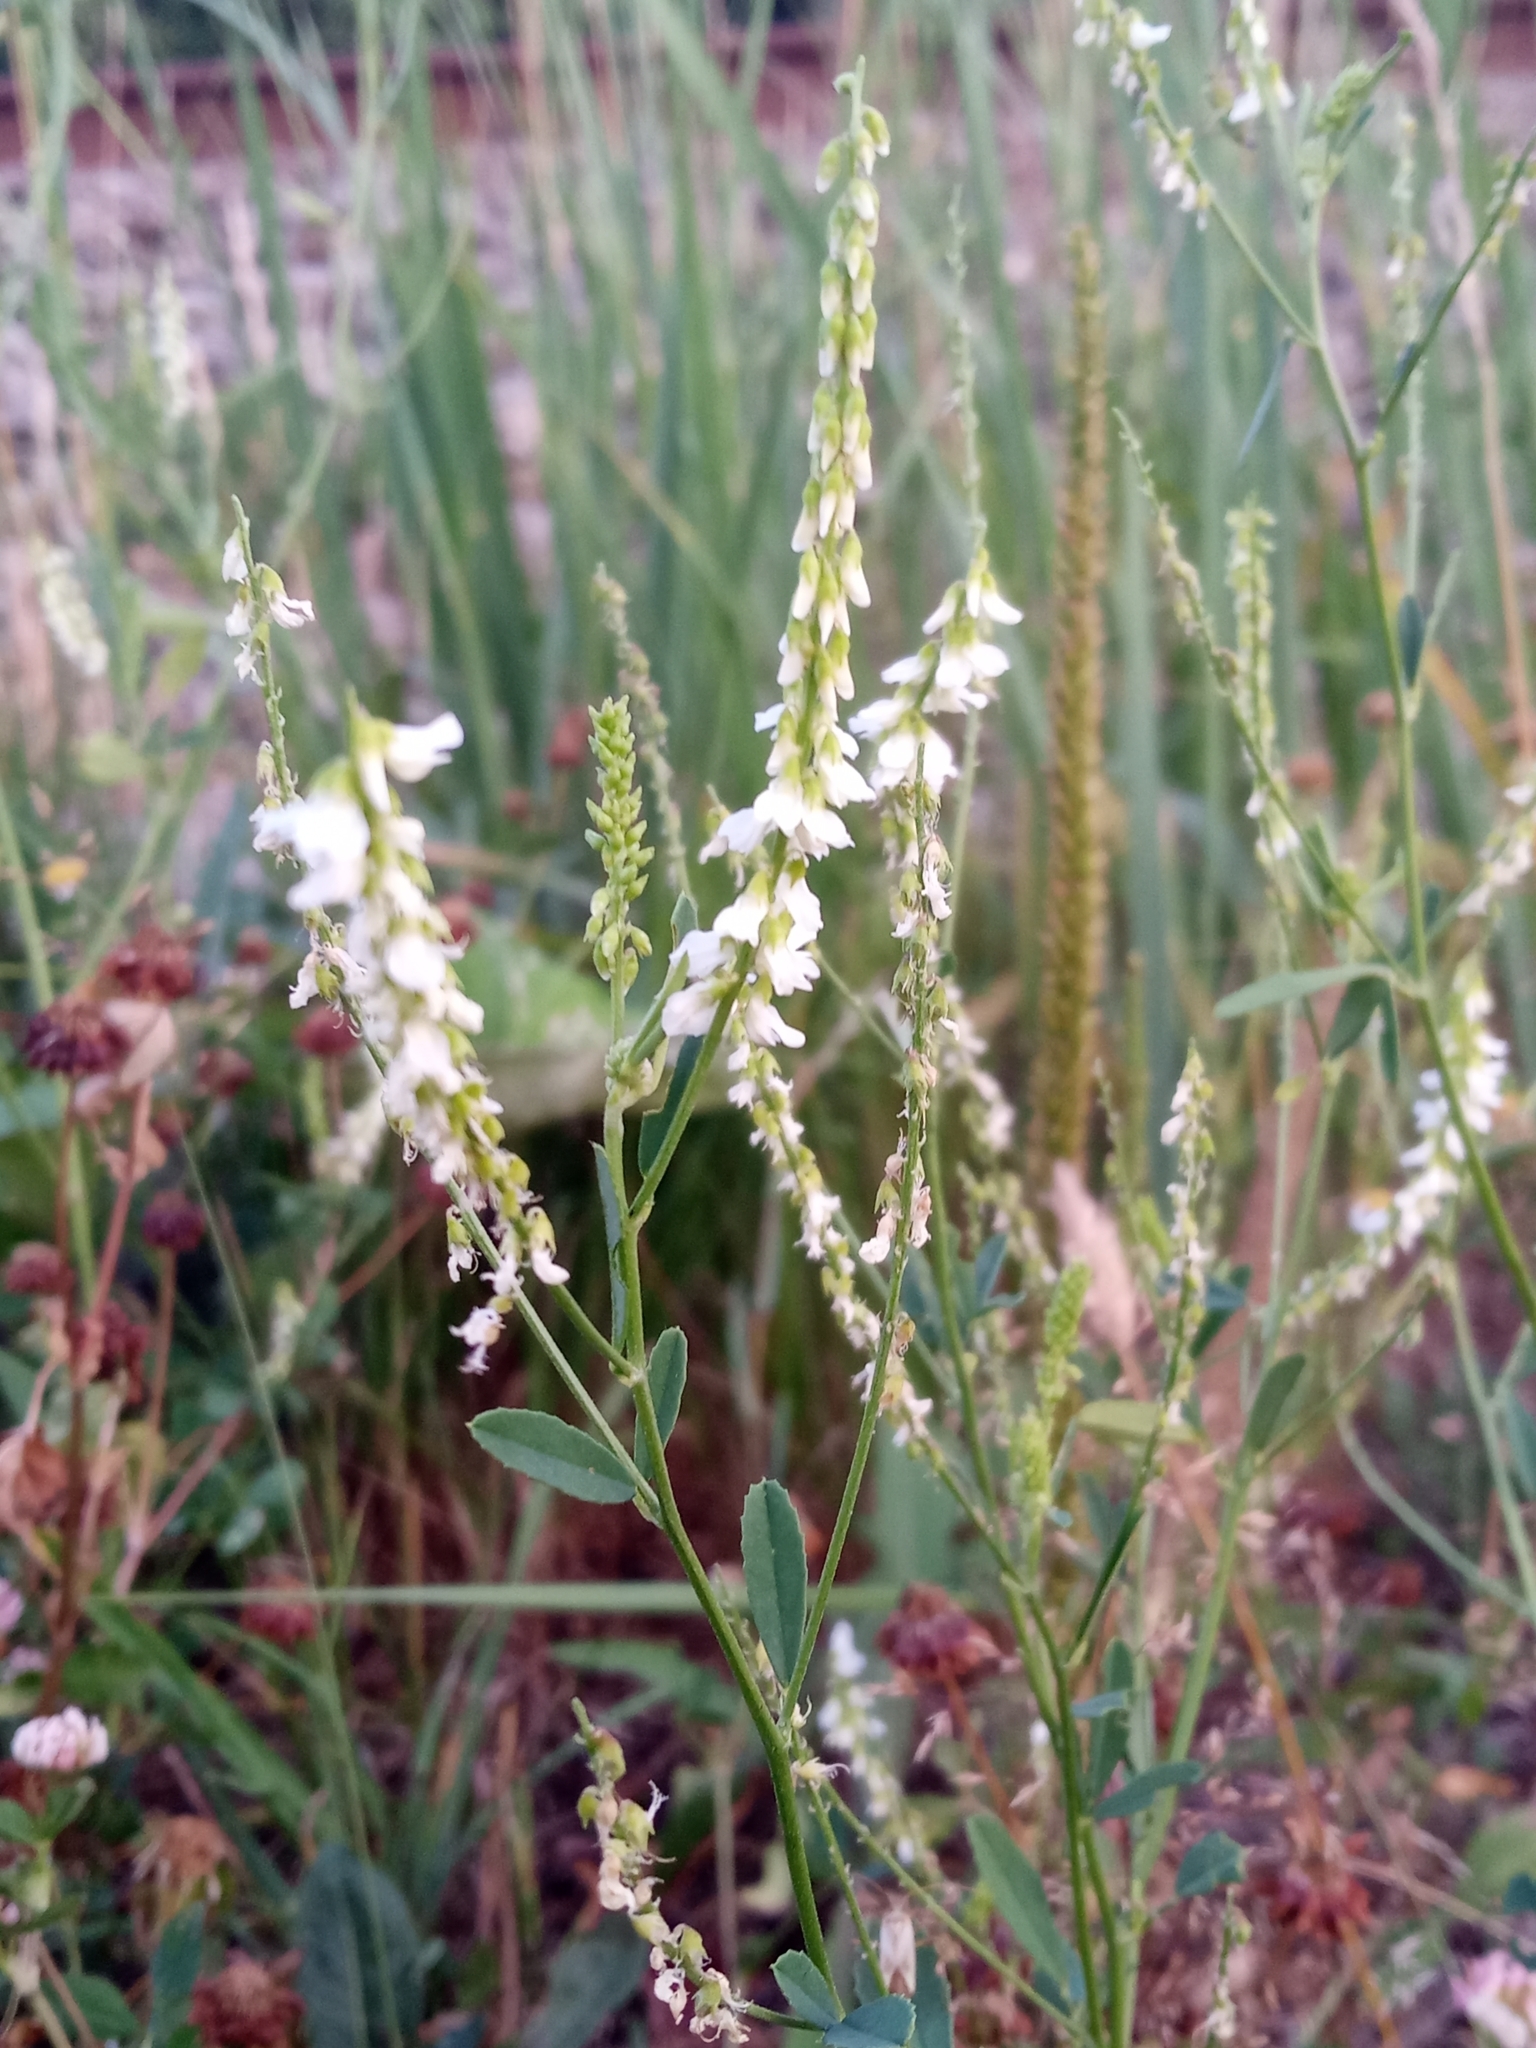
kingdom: Plantae
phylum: Tracheophyta
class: Magnoliopsida
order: Fabales
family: Fabaceae
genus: Melilotus
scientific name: Melilotus albus
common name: White melilot
